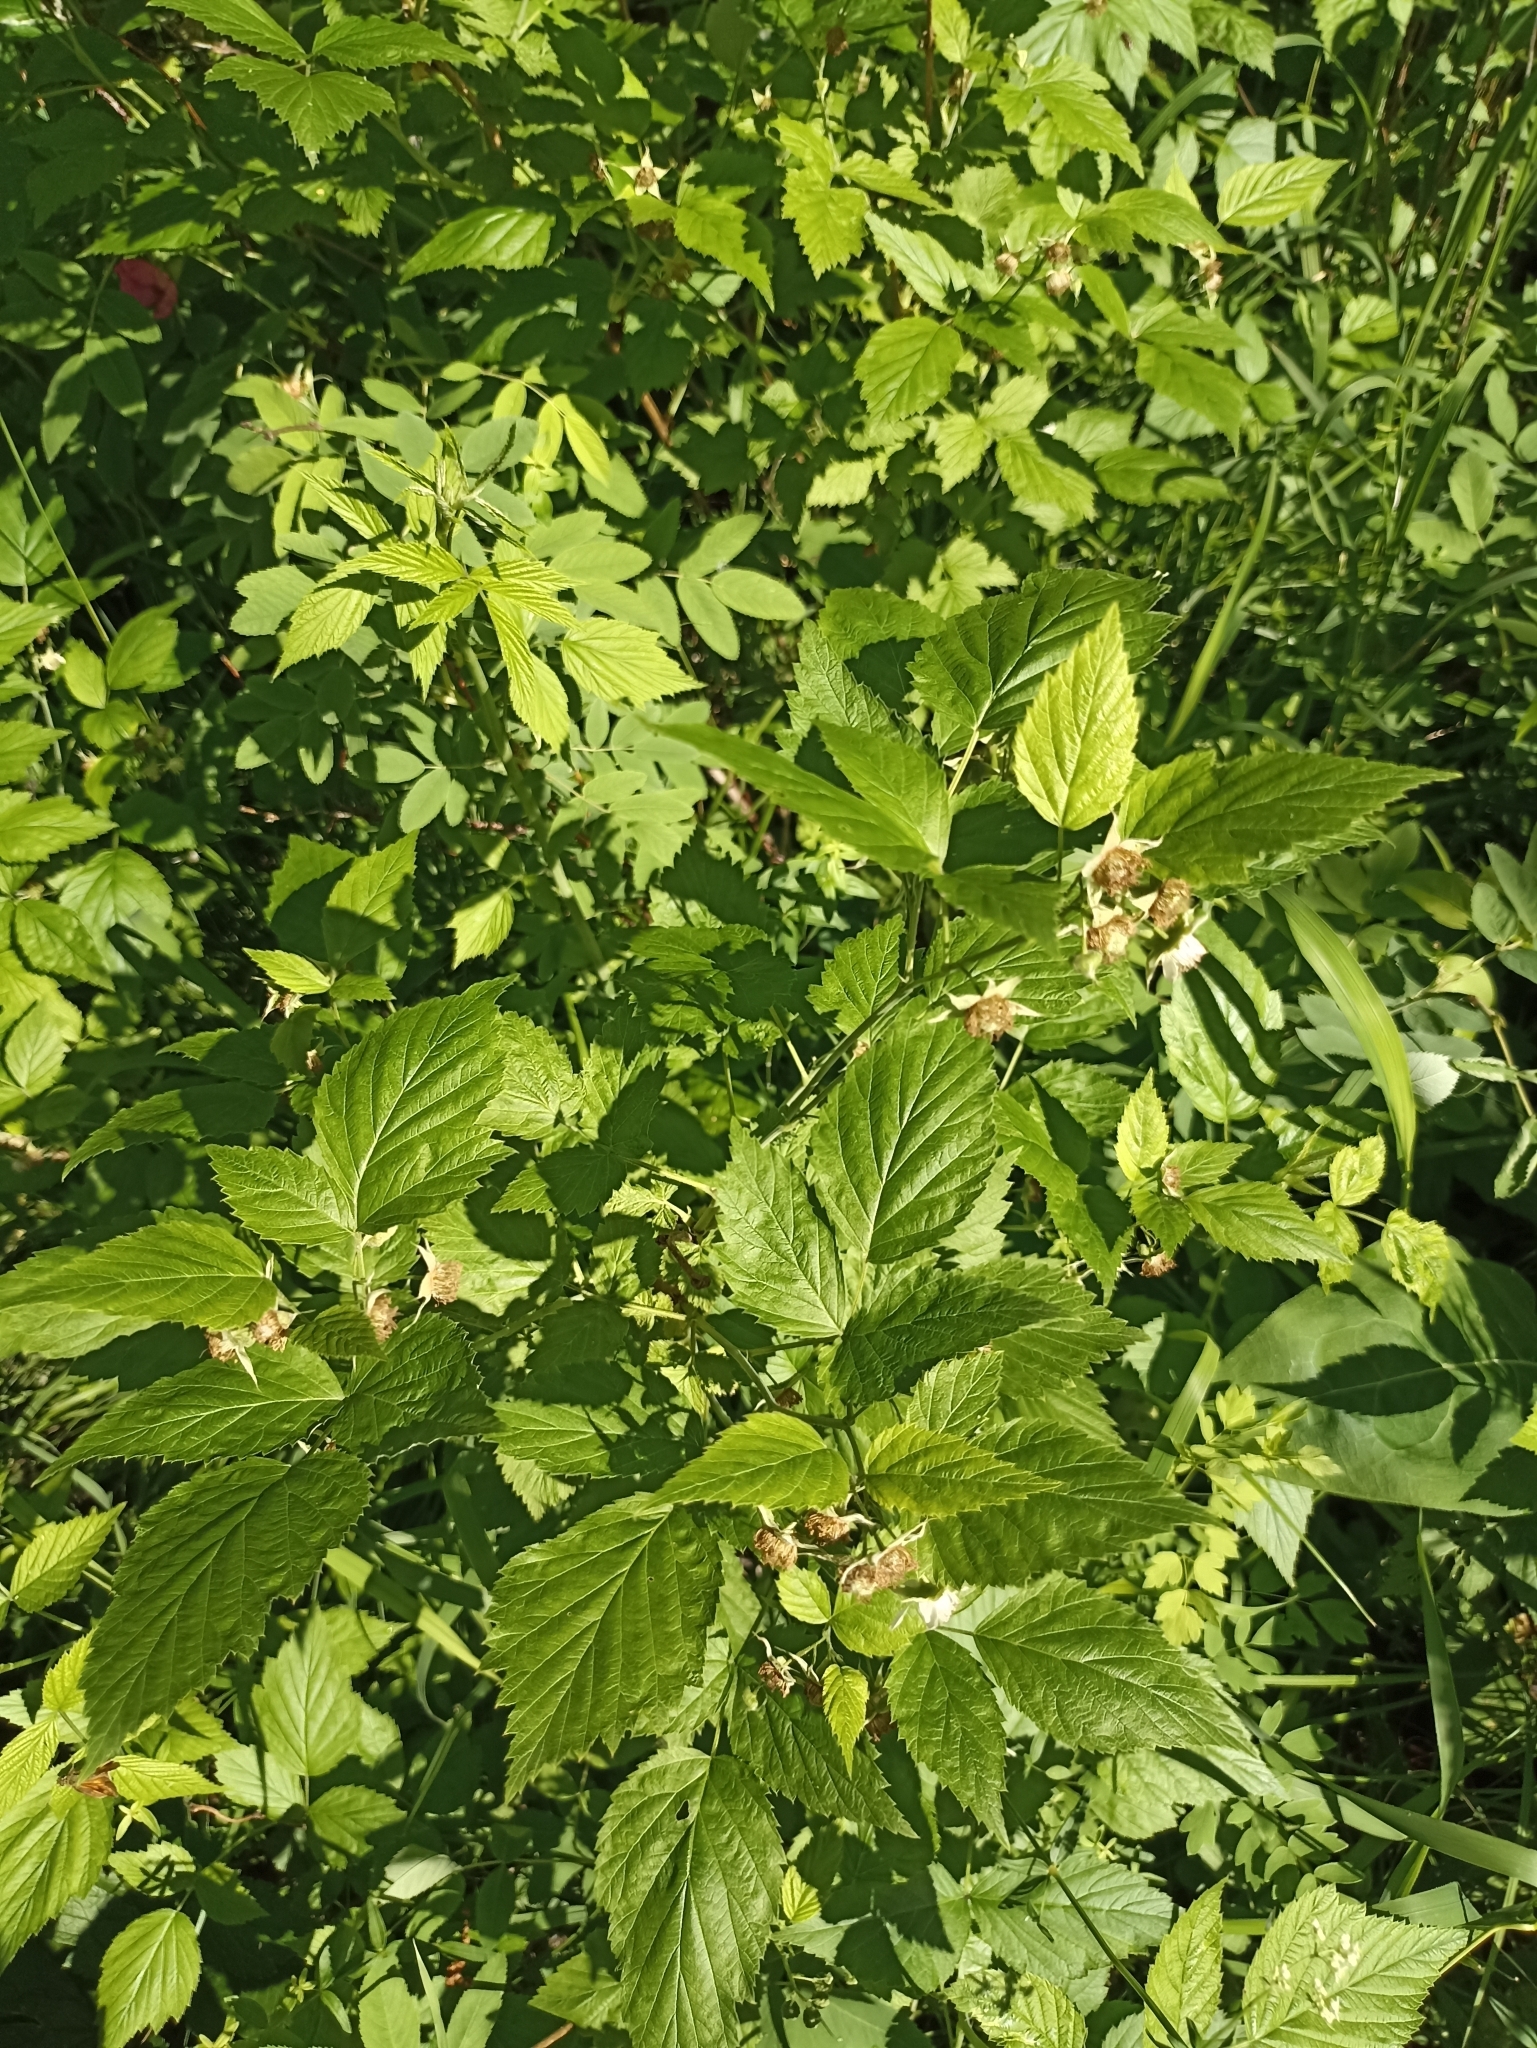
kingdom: Plantae
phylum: Tracheophyta
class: Magnoliopsida
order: Rosales
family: Rosaceae
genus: Rubus
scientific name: Rubus idaeus
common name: Raspberry
